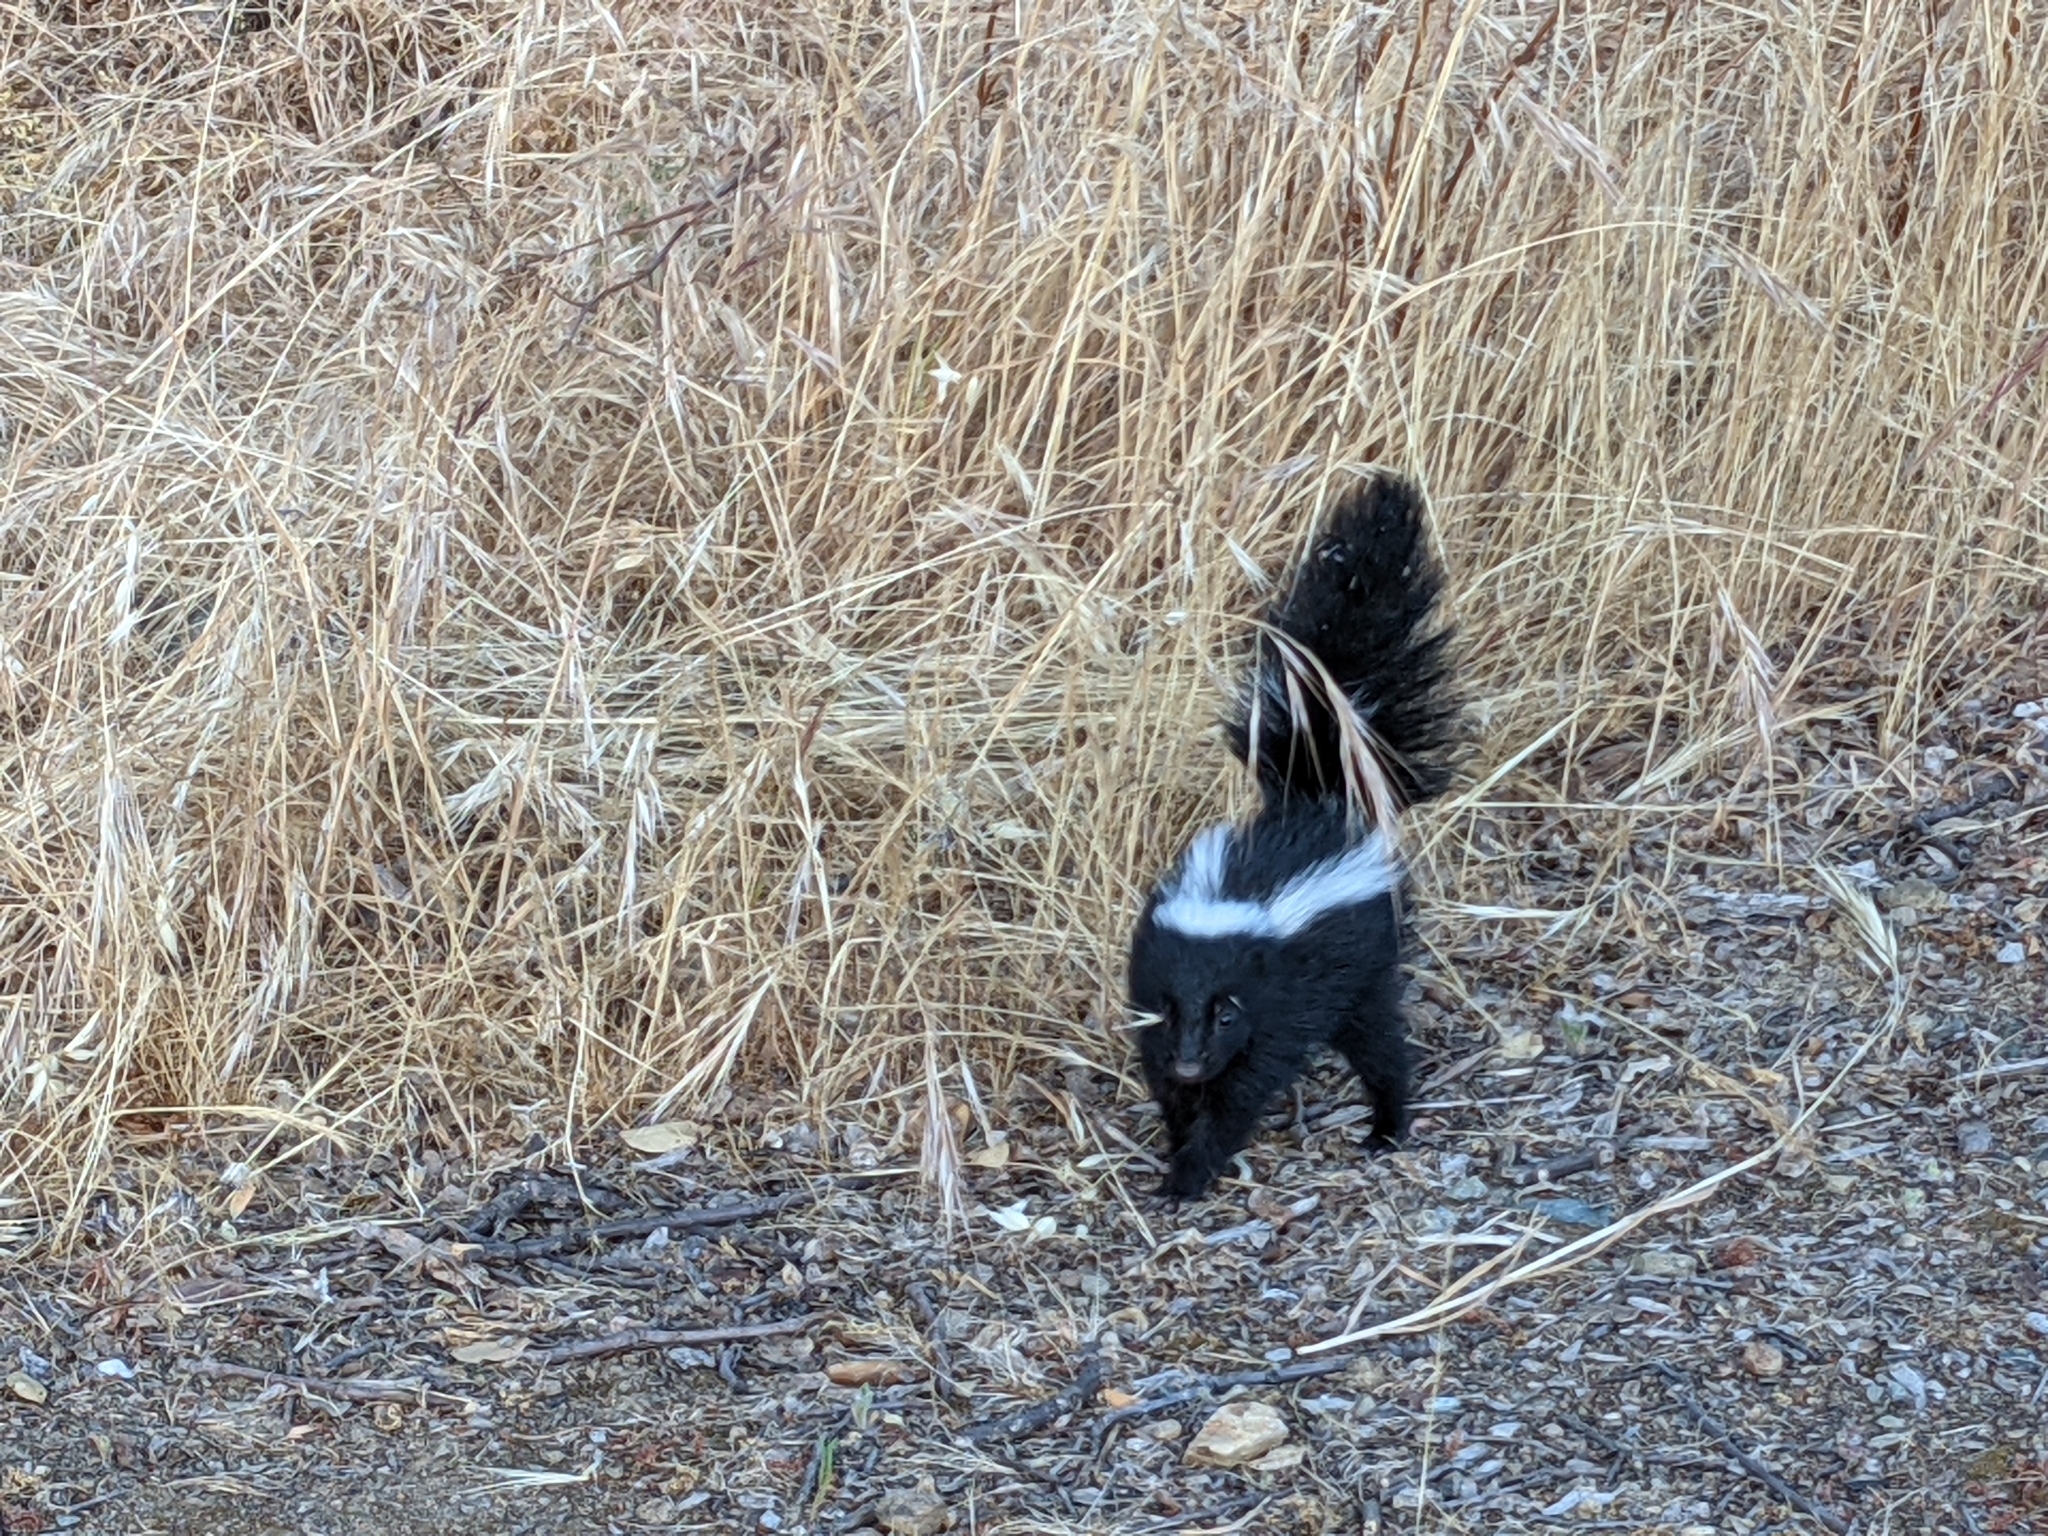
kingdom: Animalia
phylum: Chordata
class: Mammalia
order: Carnivora
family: Mephitidae
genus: Mephitis
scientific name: Mephitis mephitis
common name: Striped skunk
